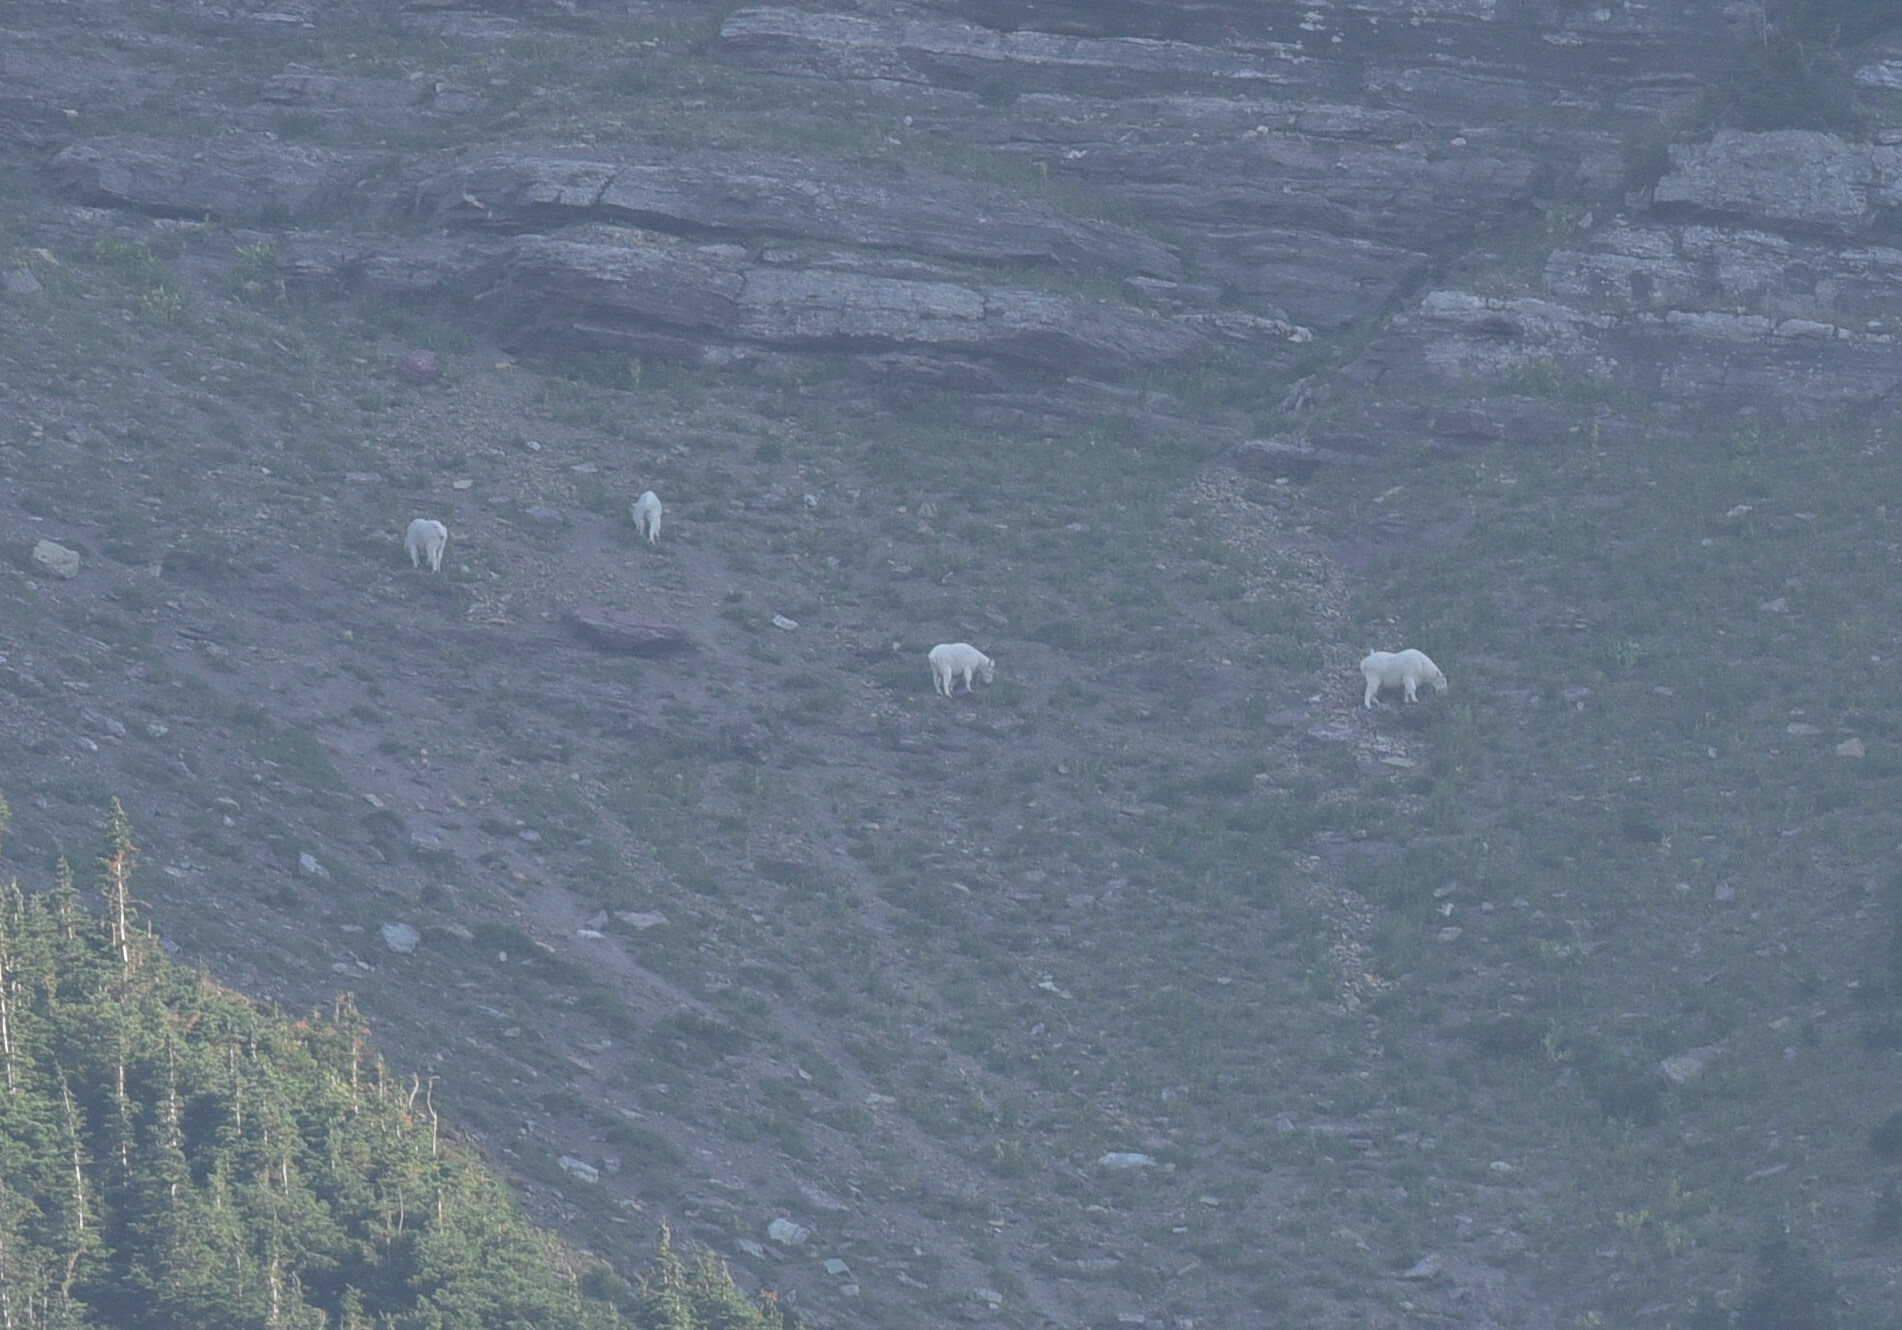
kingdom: Animalia
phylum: Chordata
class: Mammalia
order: Artiodactyla
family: Bovidae
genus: Oreamnos
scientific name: Oreamnos americanus
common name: Mountain goat
